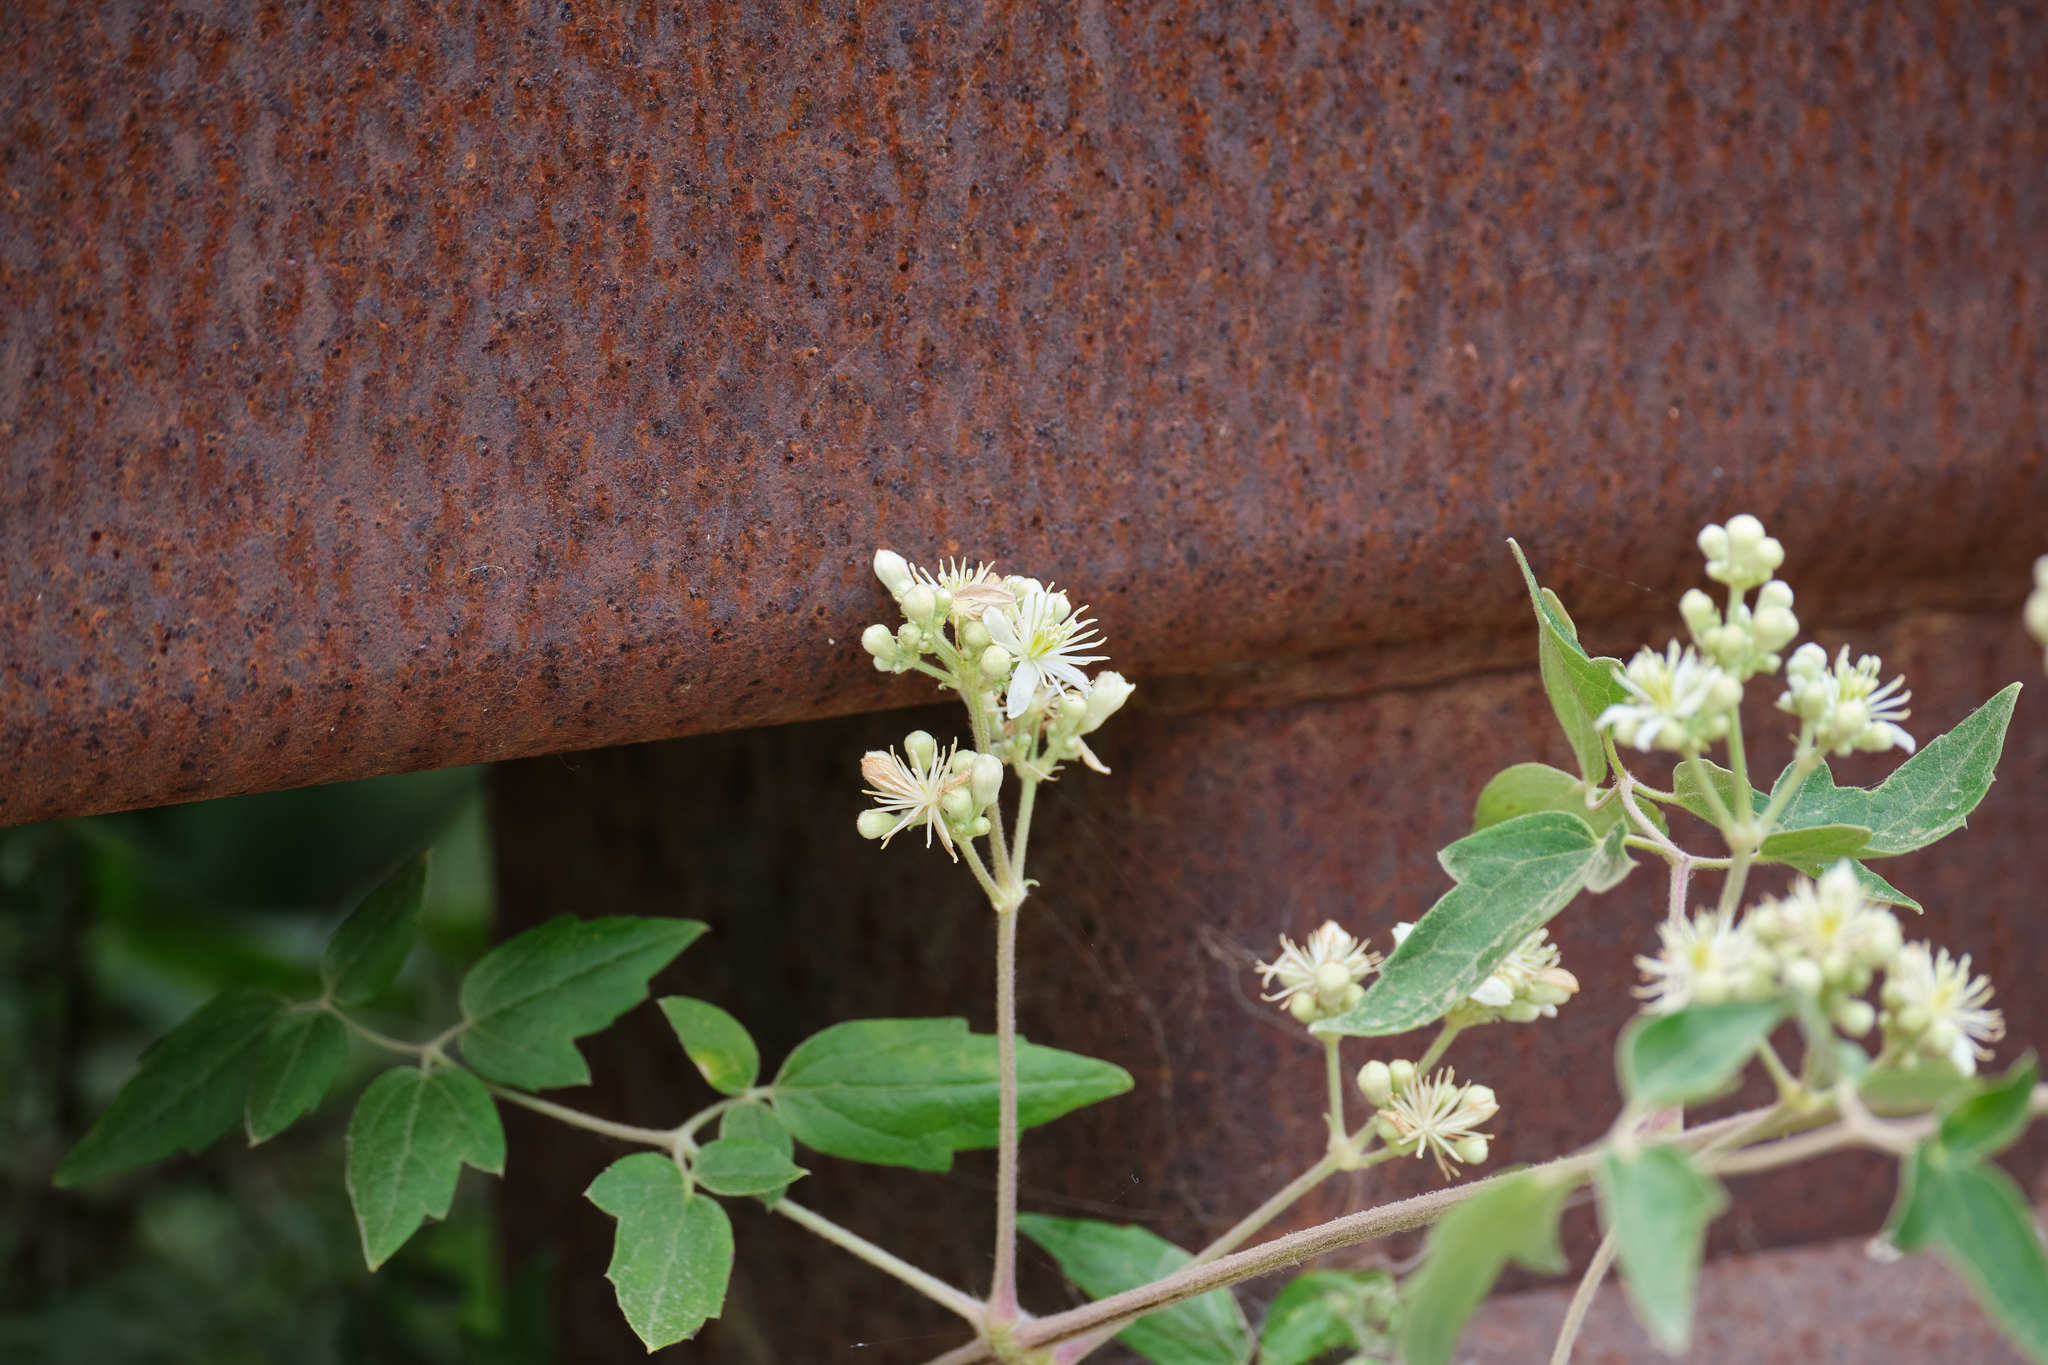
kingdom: Plantae
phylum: Tracheophyta
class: Magnoliopsida
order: Ranunculales
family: Ranunculaceae
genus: Clematis
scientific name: Clematis ligusticifolia
